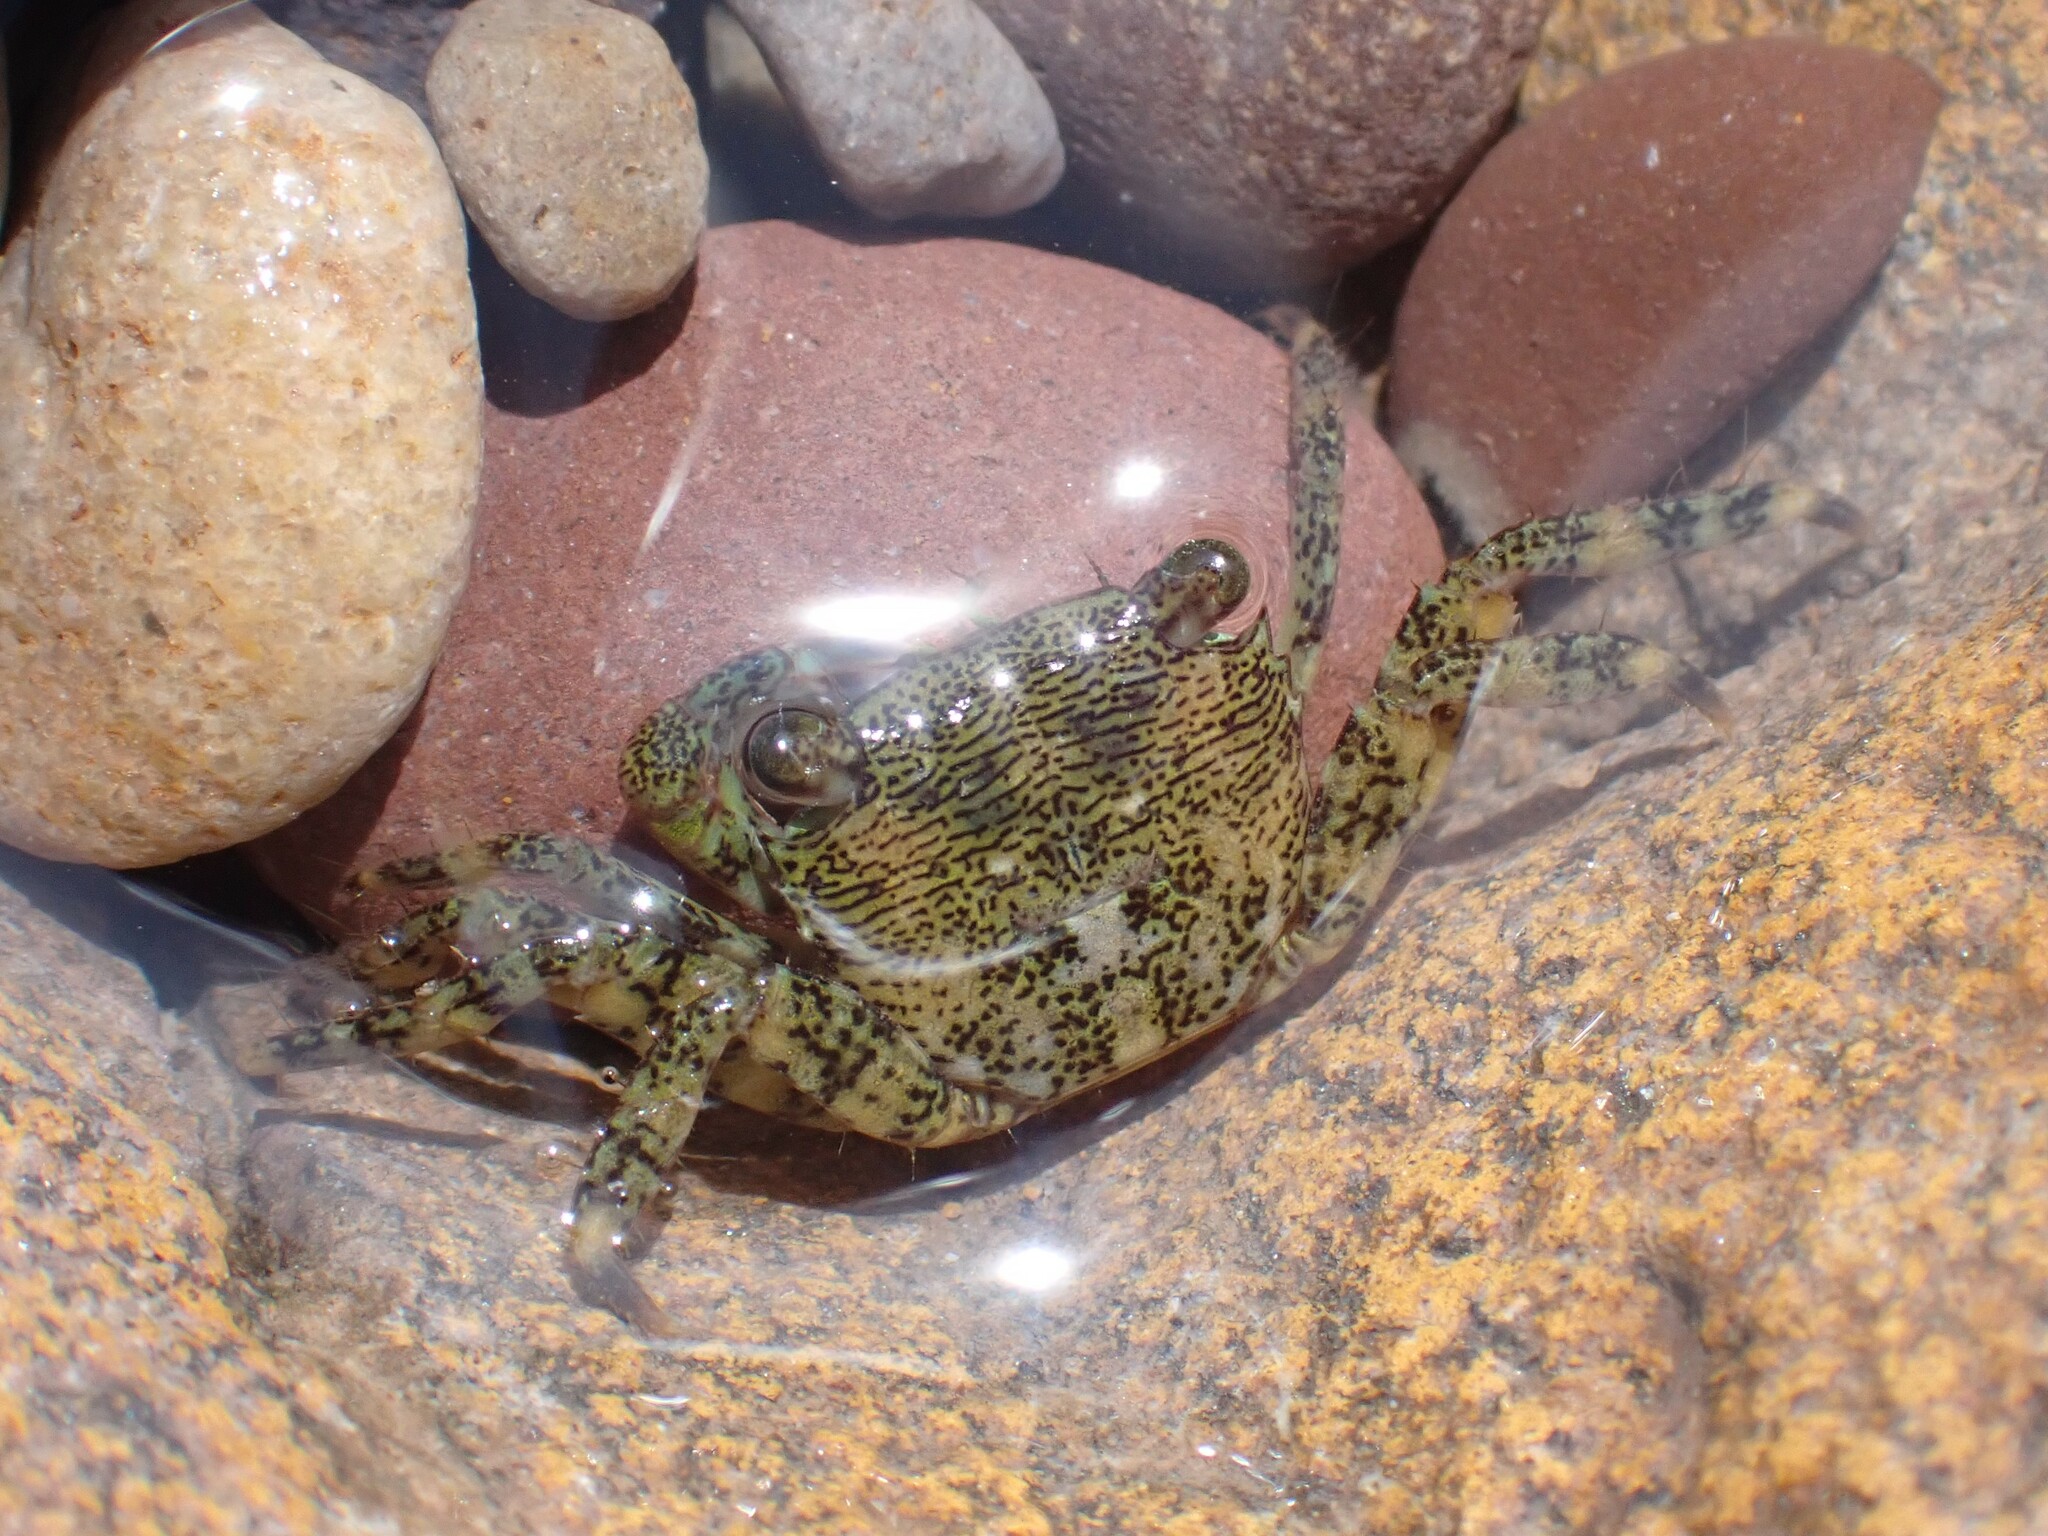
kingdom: Animalia
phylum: Arthropoda
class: Malacostraca
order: Decapoda
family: Grapsidae
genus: Pachygrapsus
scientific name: Pachygrapsus marmoratus
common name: Marbled rock crab
